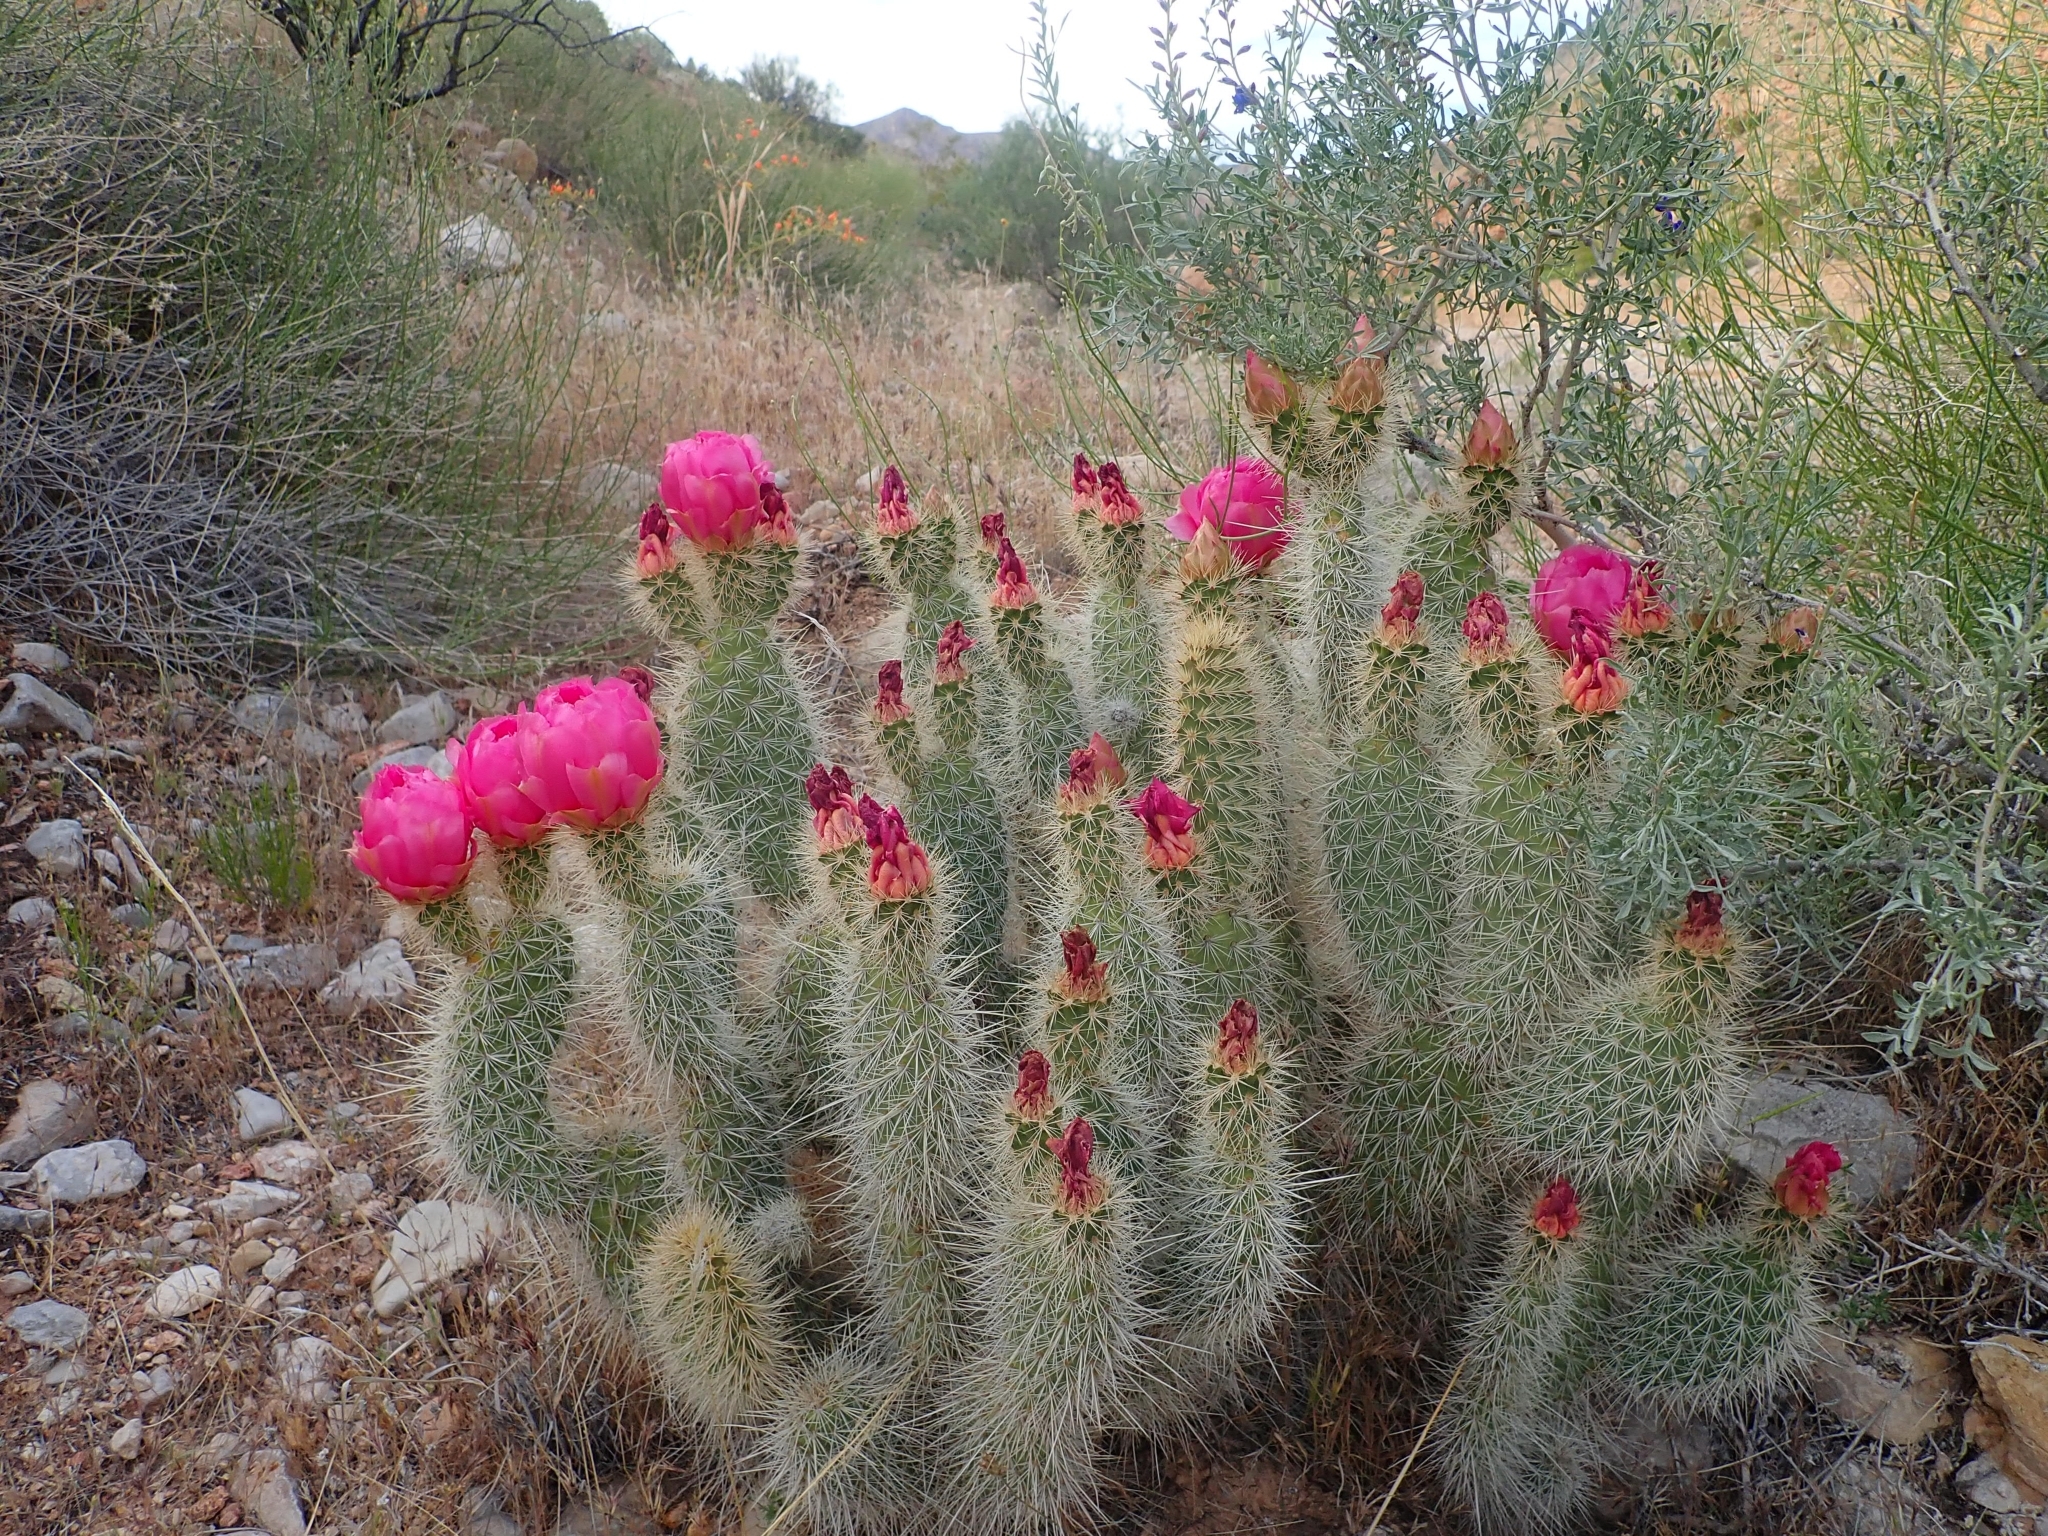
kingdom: Plantae
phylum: Tracheophyta
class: Magnoliopsida
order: Caryophyllales
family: Cactaceae
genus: Opuntia
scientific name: Opuntia polyacantha
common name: Plains prickly-pear
